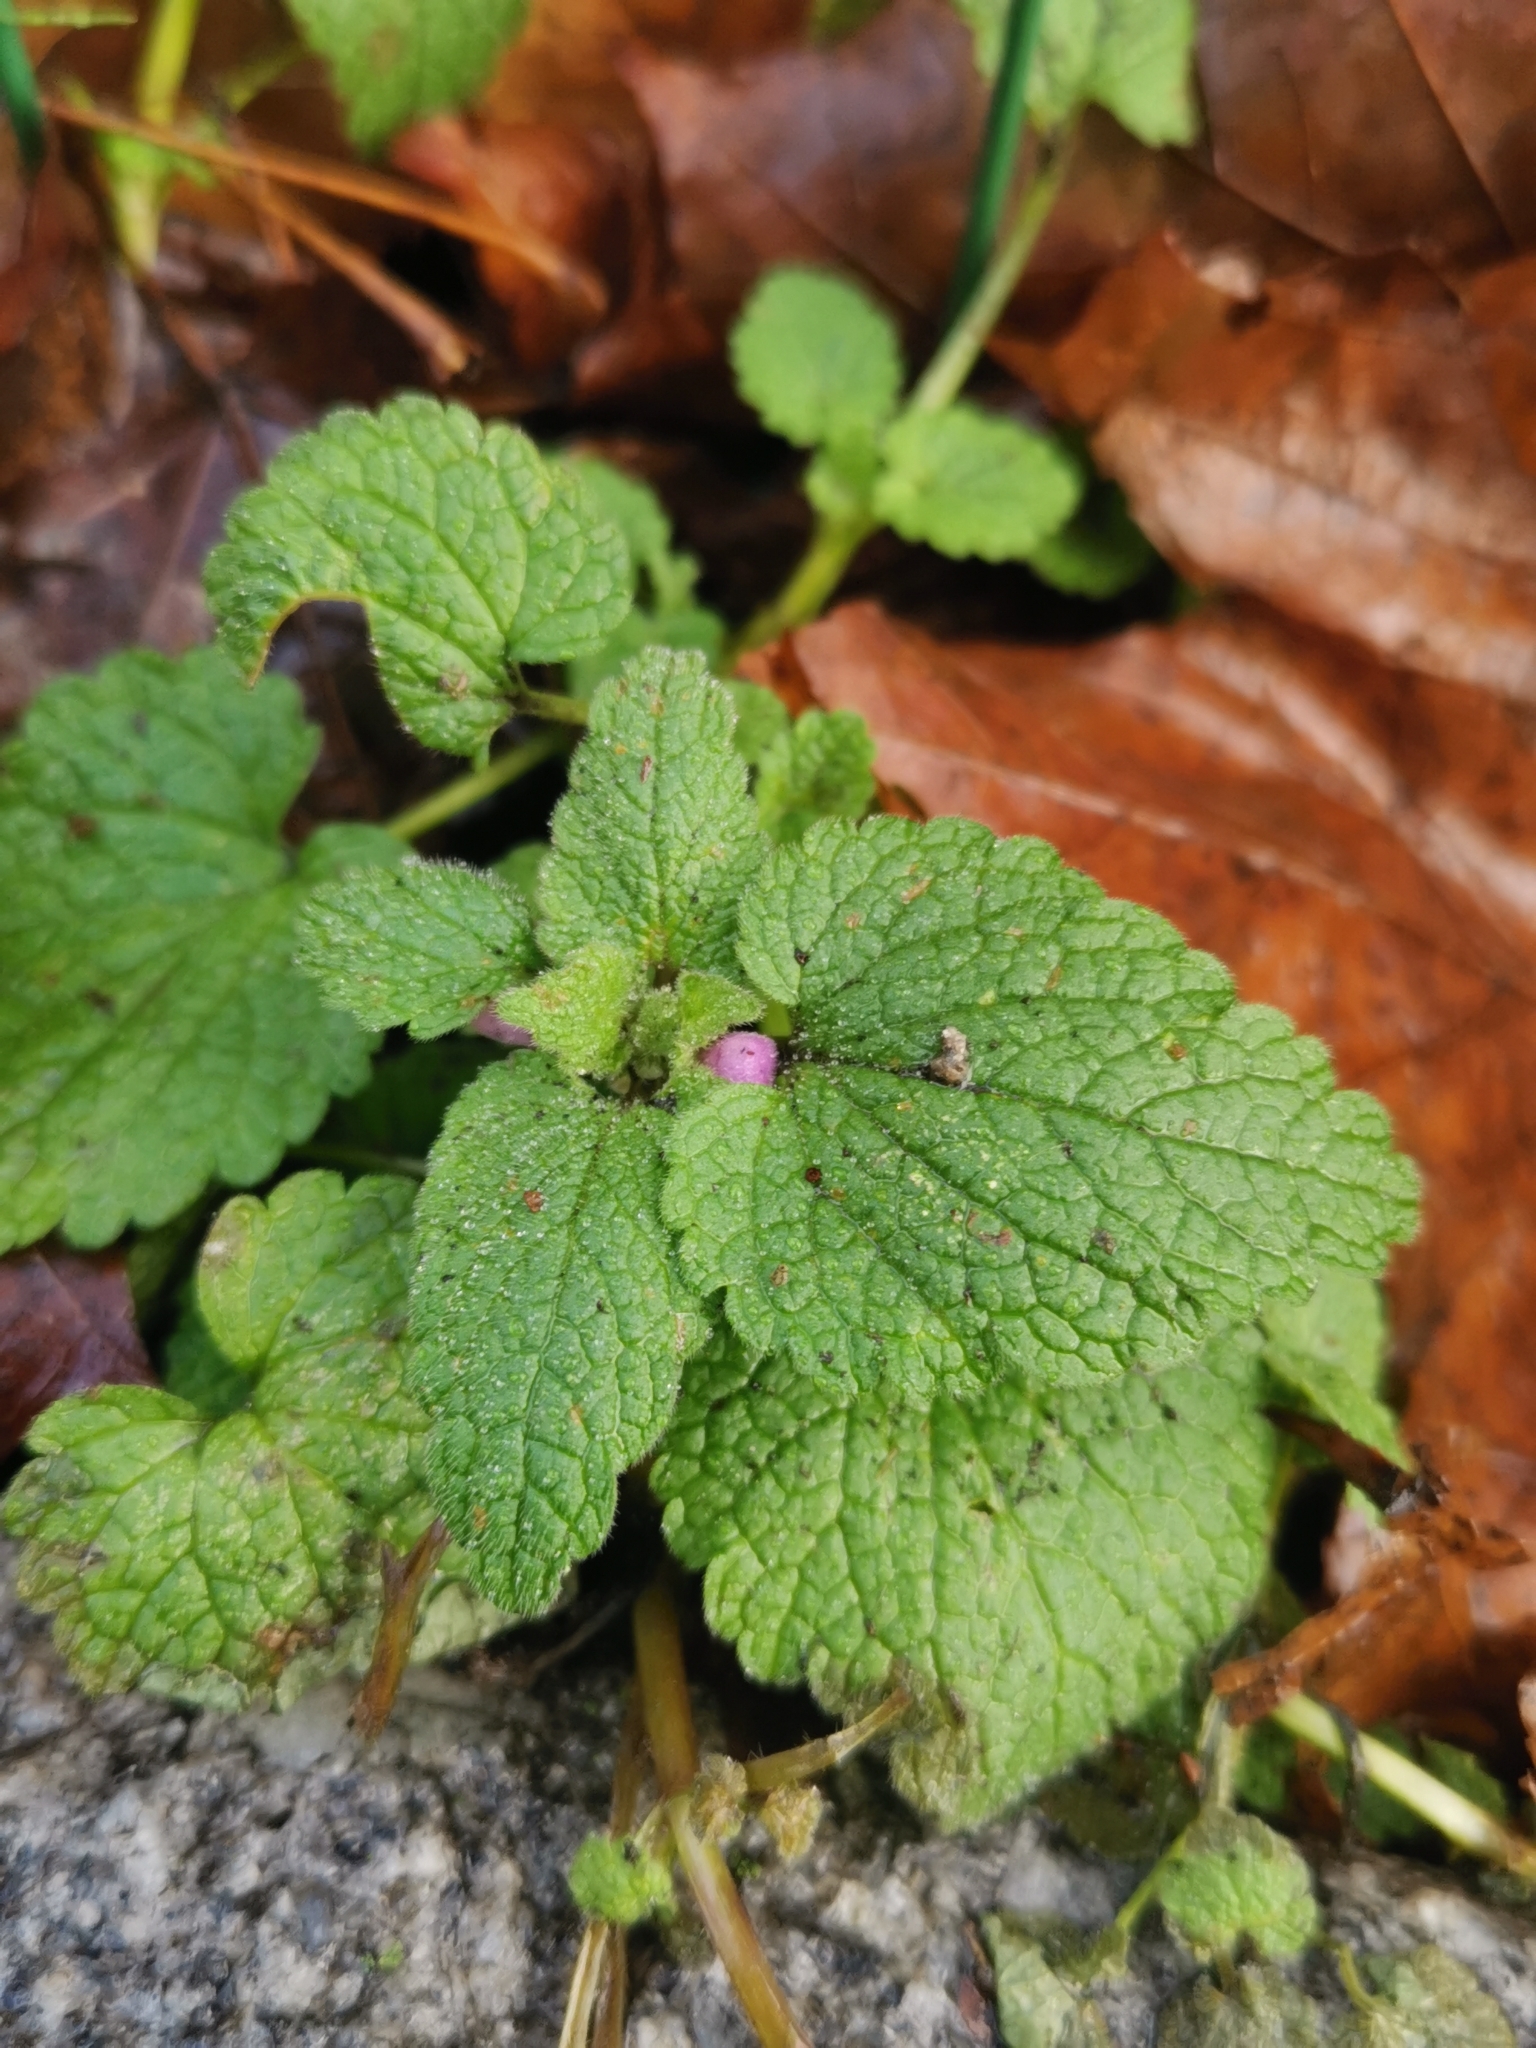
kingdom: Plantae
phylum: Tracheophyta
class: Magnoliopsida
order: Lamiales
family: Lamiaceae
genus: Lamium
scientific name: Lamium purpureum
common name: Red dead-nettle
